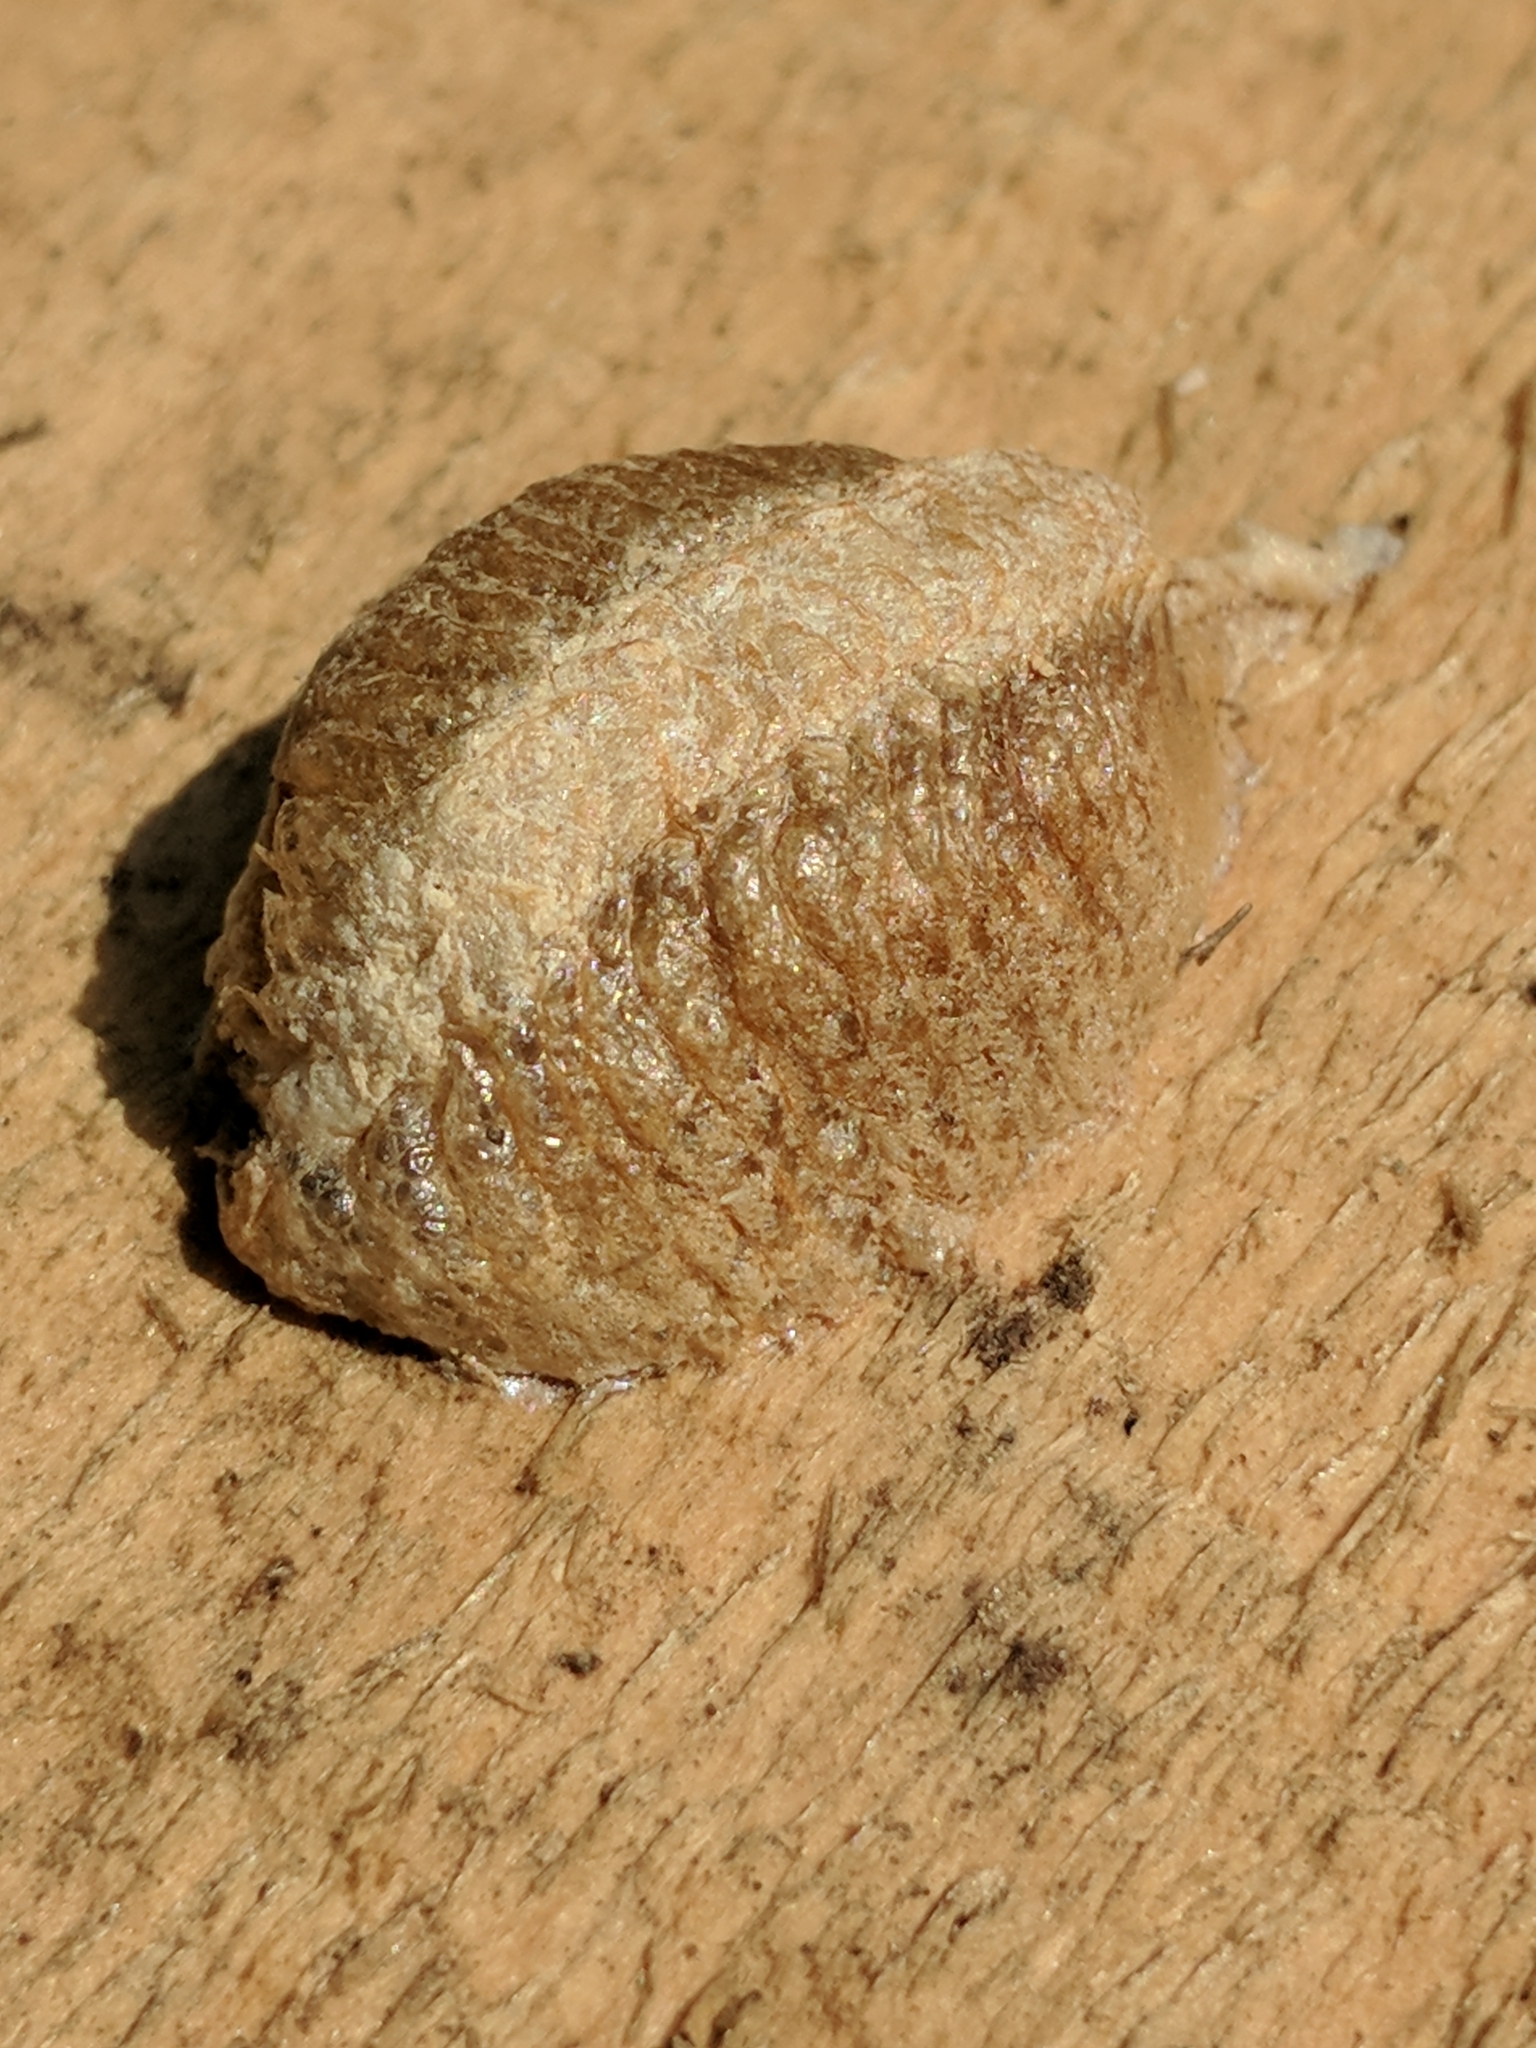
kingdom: Animalia
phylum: Arthropoda
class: Insecta
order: Mantodea
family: Mantidae
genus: Mantis
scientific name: Mantis religiosa
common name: Praying mantis
